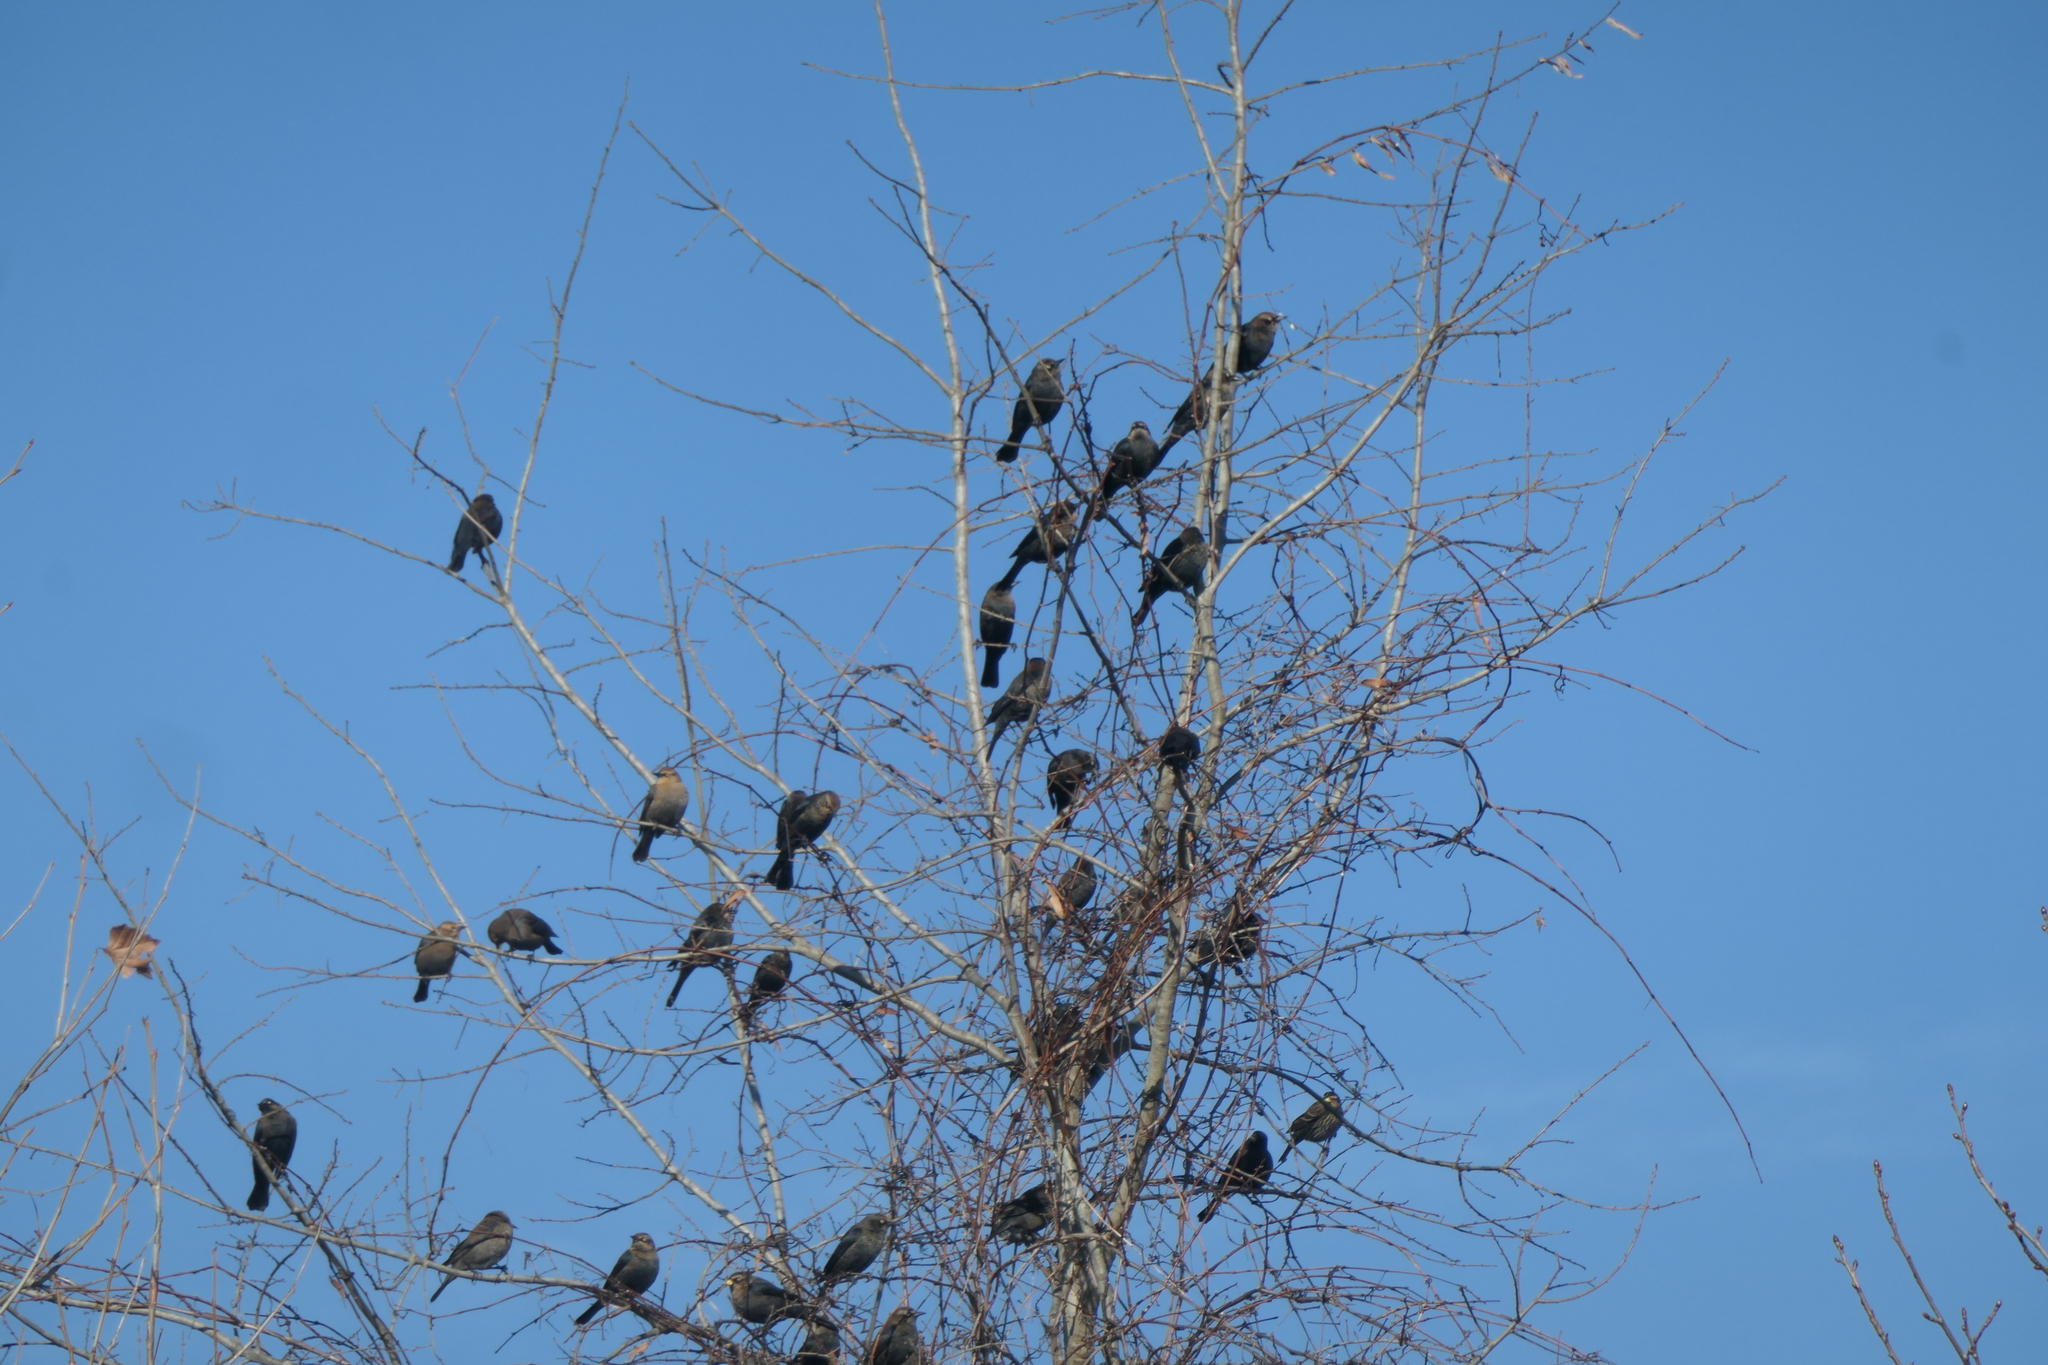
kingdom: Animalia
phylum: Chordata
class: Aves
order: Passeriformes
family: Icteridae
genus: Euphagus
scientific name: Euphagus carolinus
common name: Rusty blackbird
